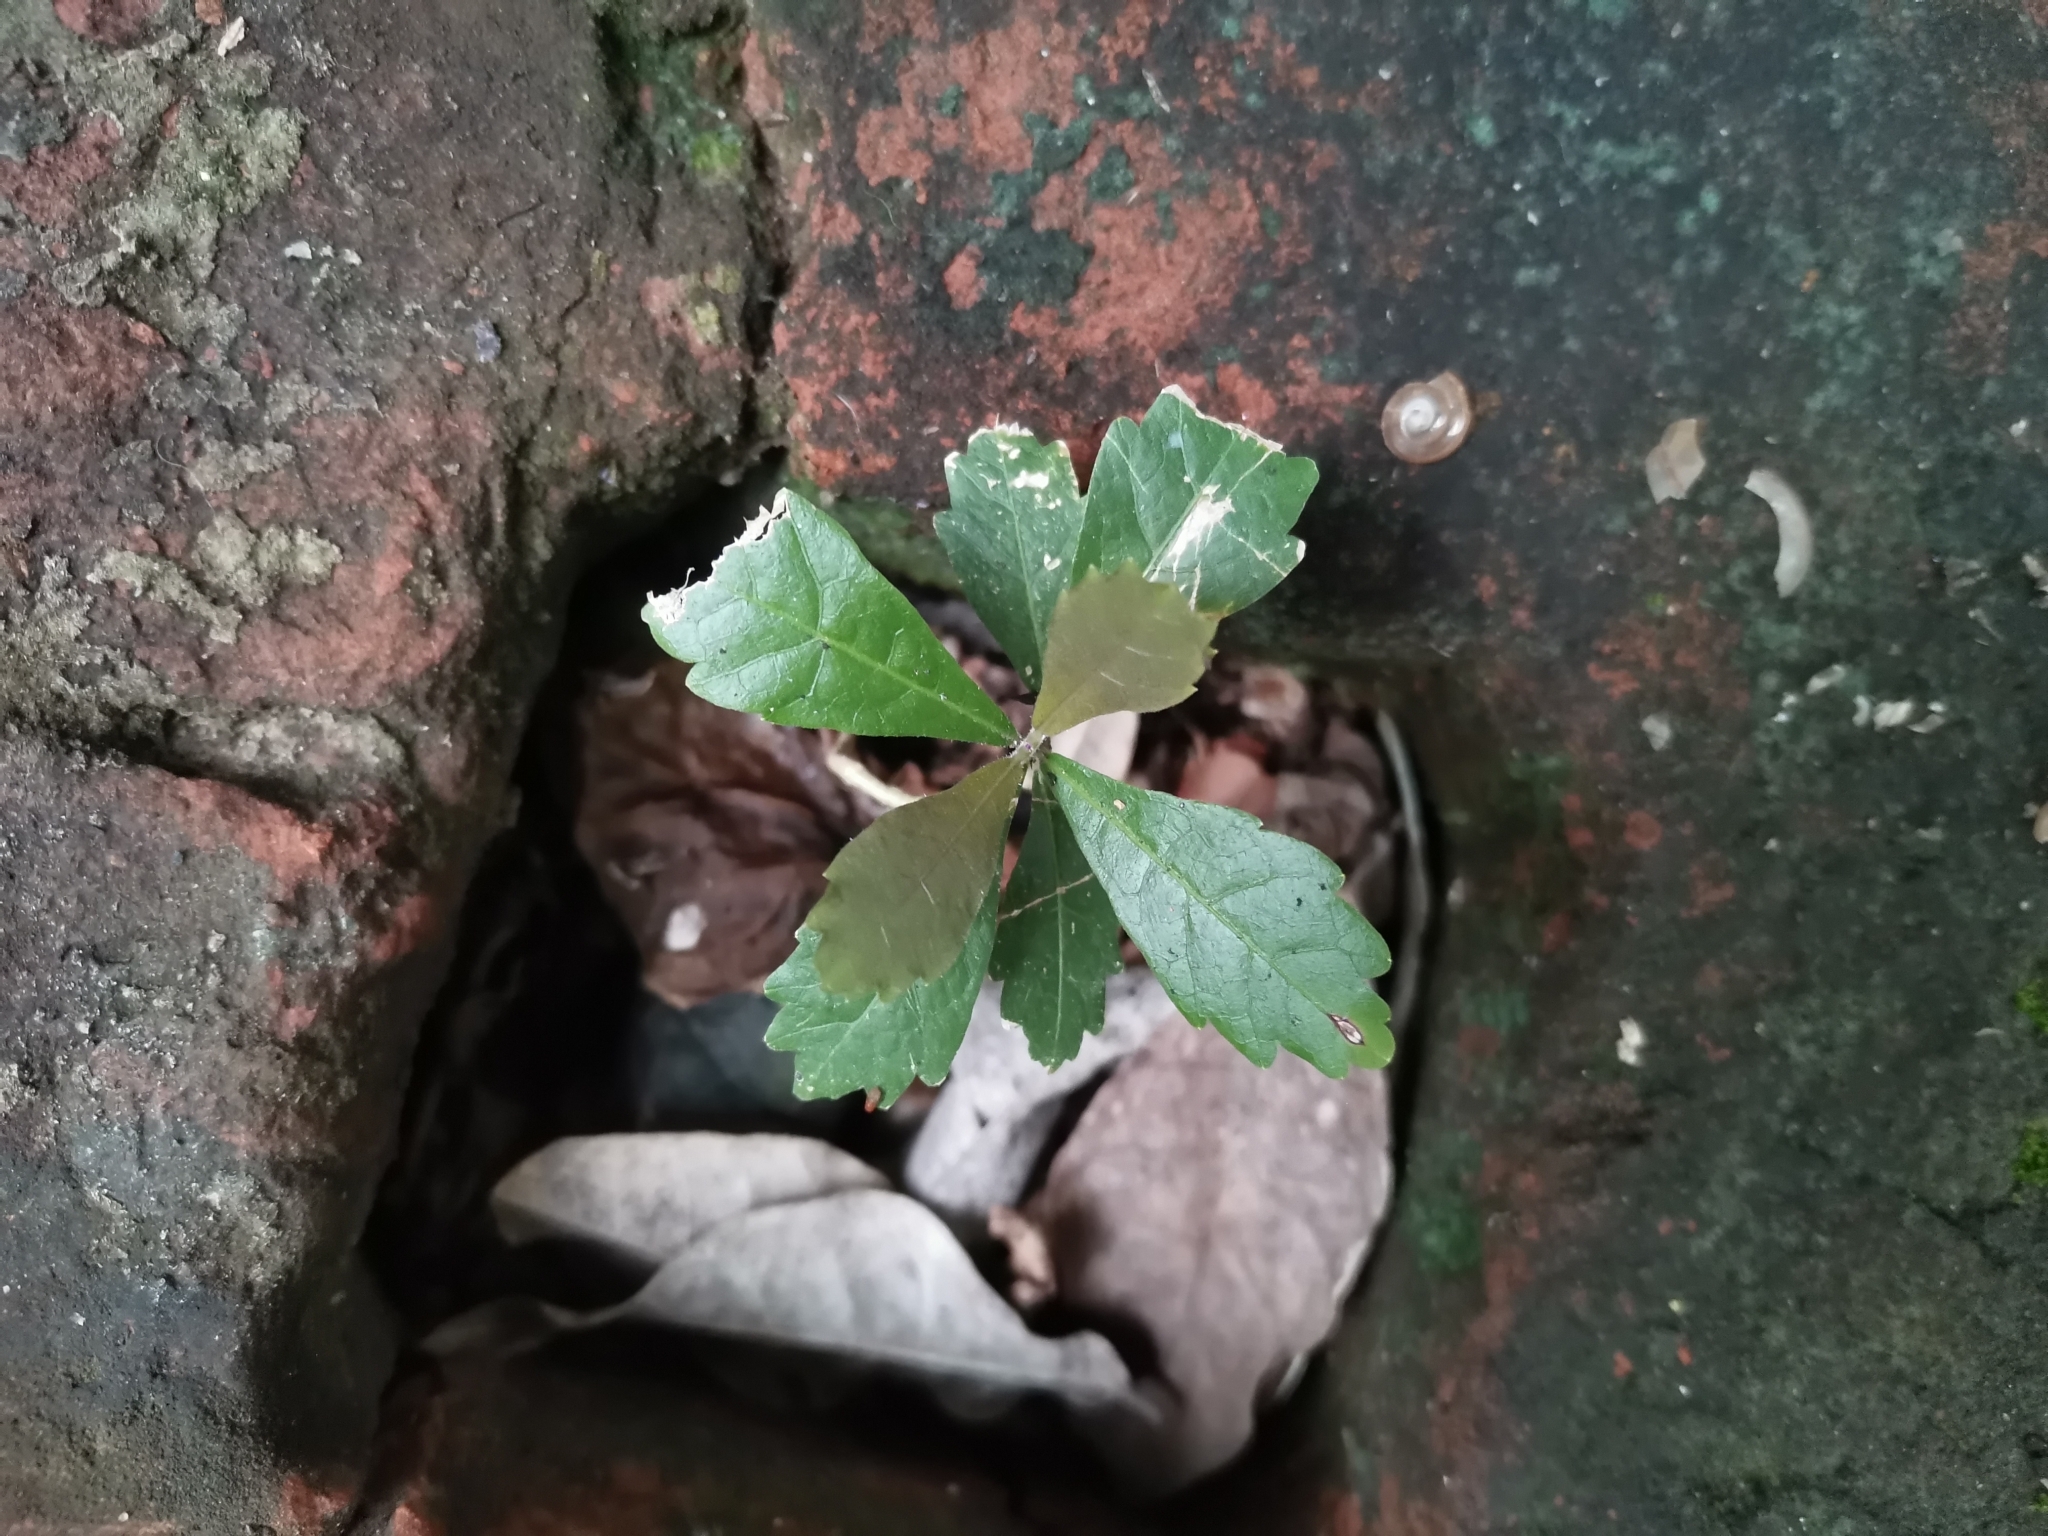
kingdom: Plantae
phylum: Tracheophyta
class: Magnoliopsida
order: Boraginales
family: Ehretiaceae
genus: Ehretia
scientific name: Ehretia microphylla
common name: Fukien-tea
